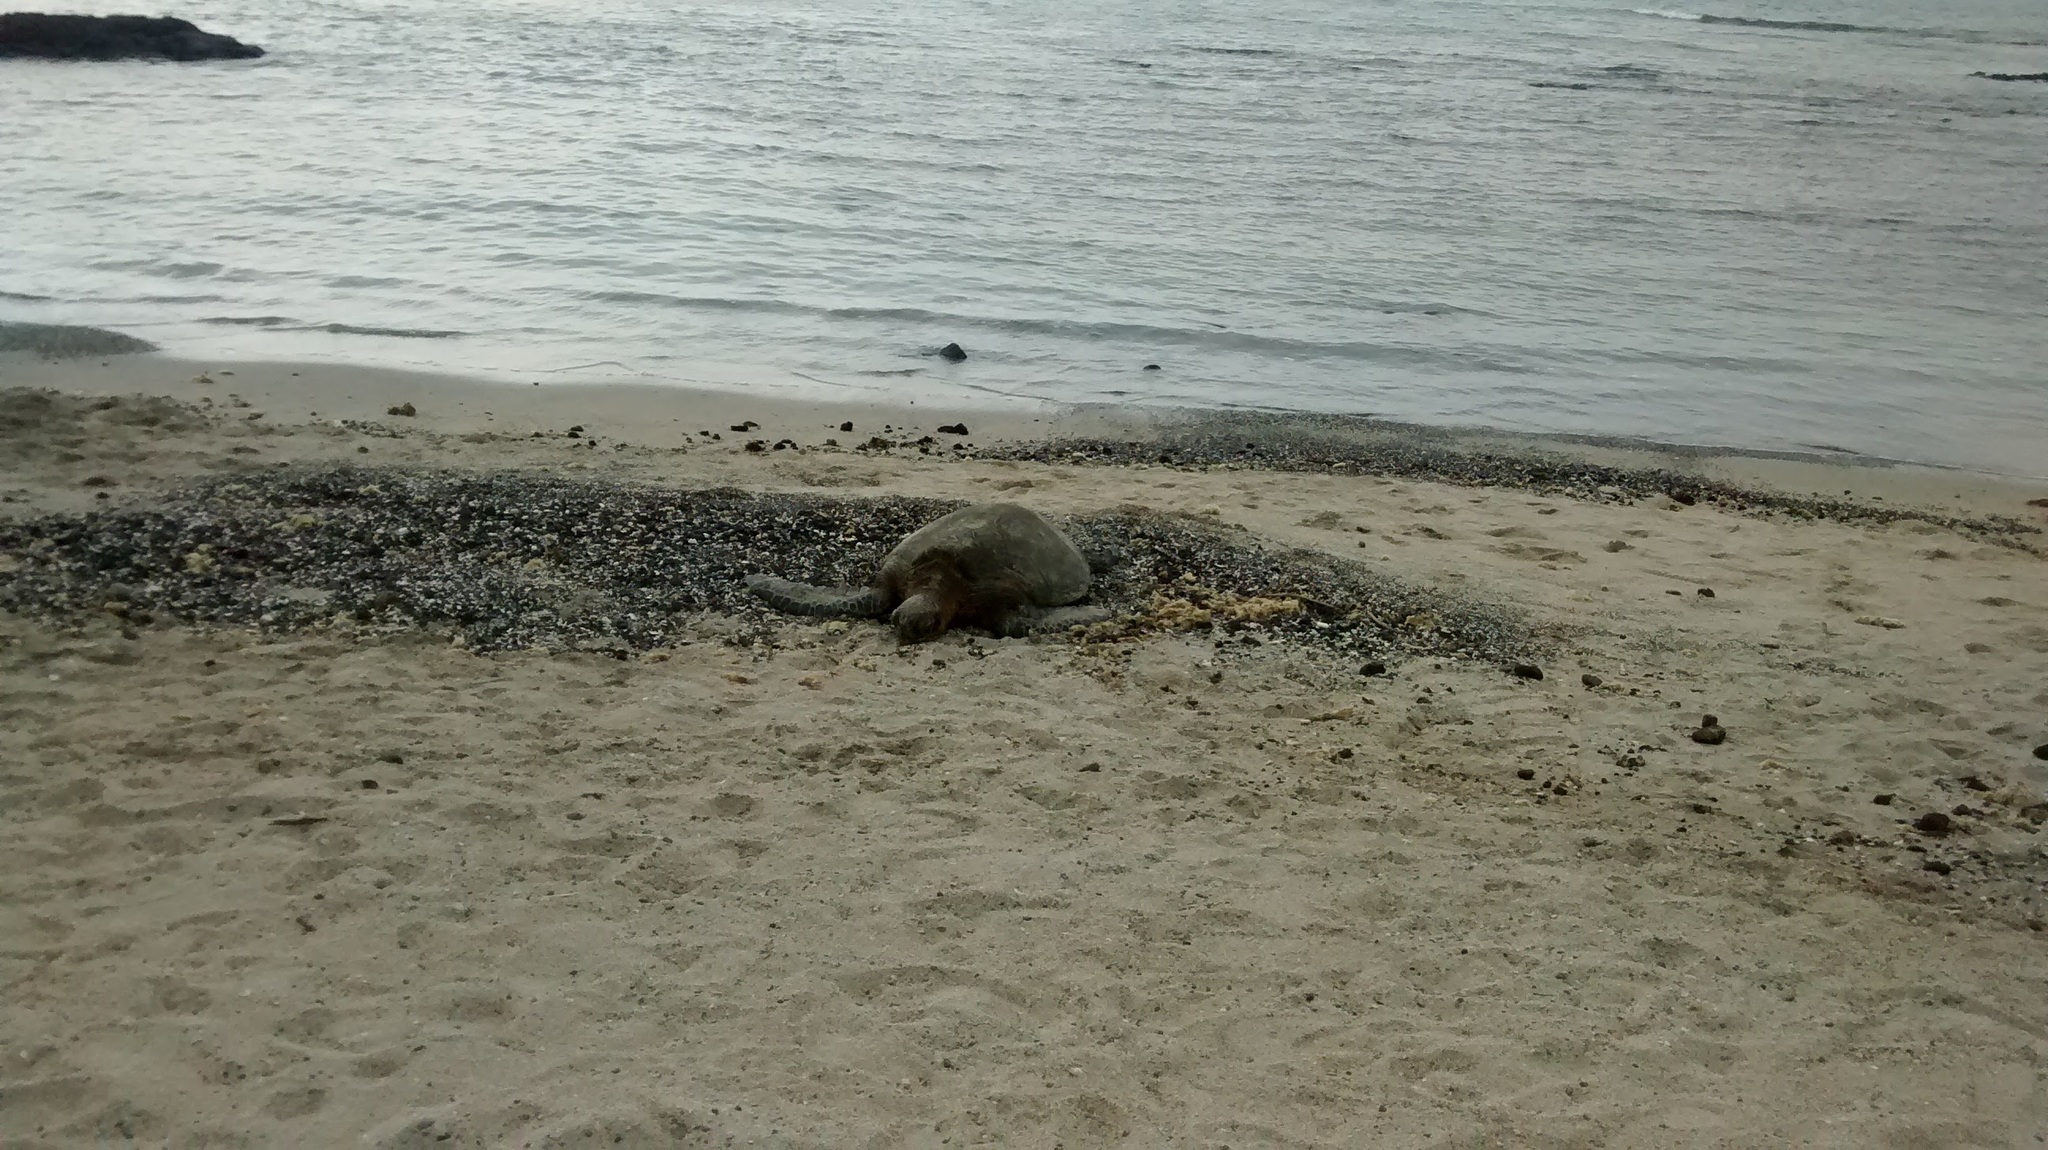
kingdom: Animalia
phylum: Chordata
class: Testudines
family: Cheloniidae
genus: Chelonia
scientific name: Chelonia mydas
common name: Green turtle
